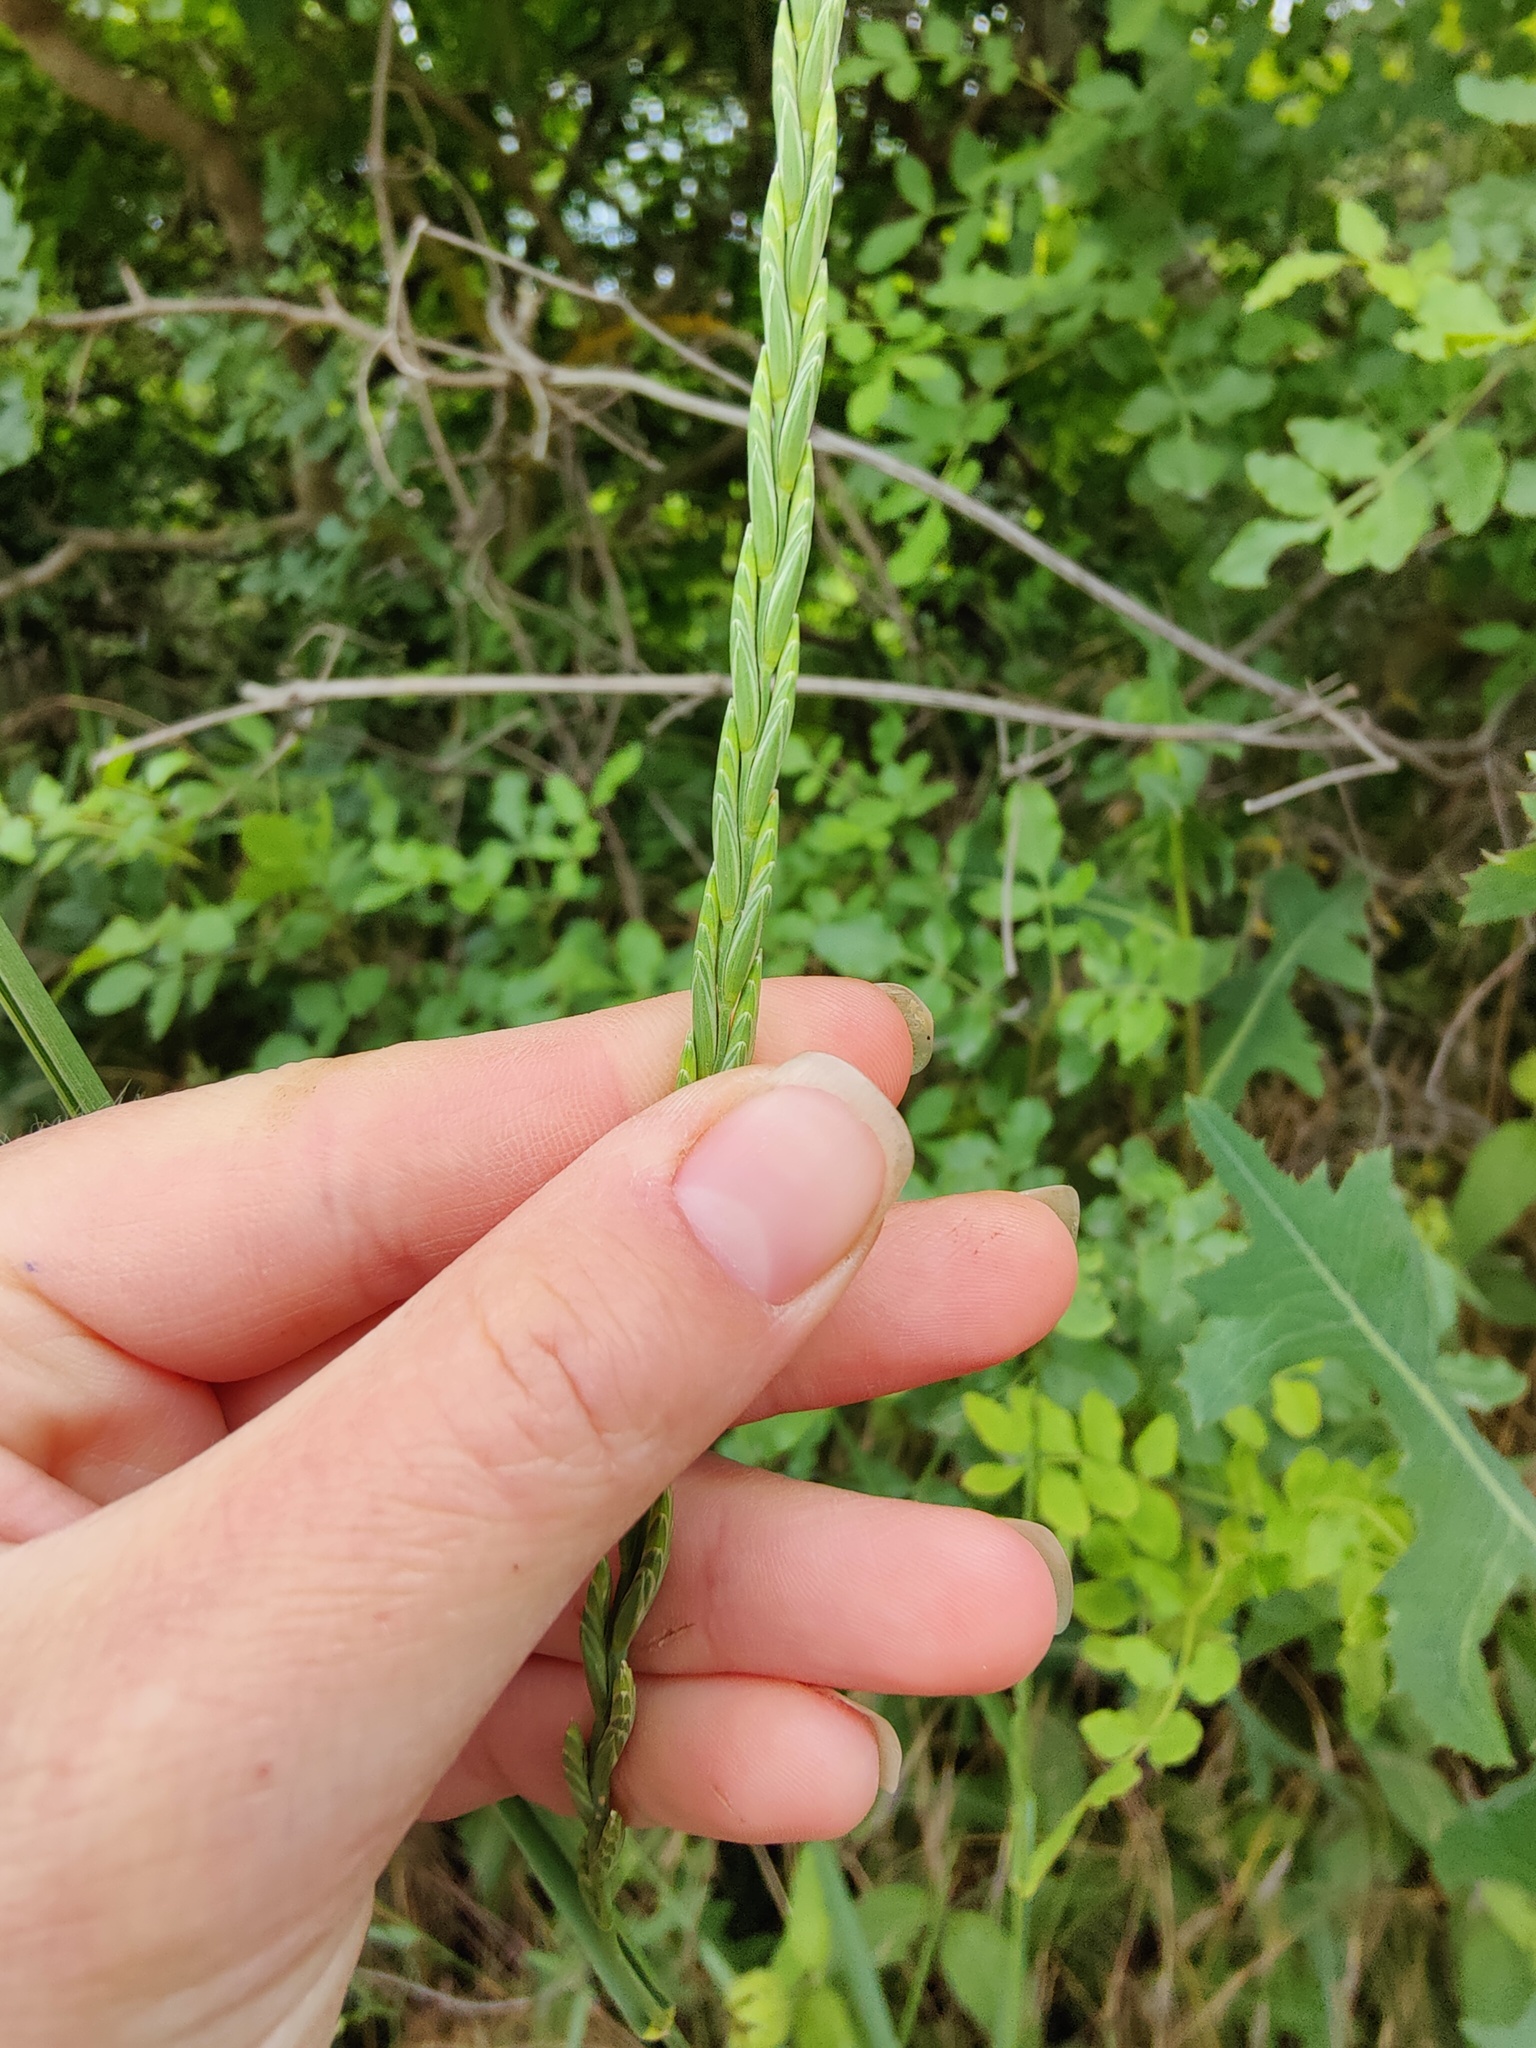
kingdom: Plantae
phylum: Tracheophyta
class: Liliopsida
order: Poales
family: Poaceae
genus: Elymus
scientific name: Elymus repens
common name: Quackgrass
